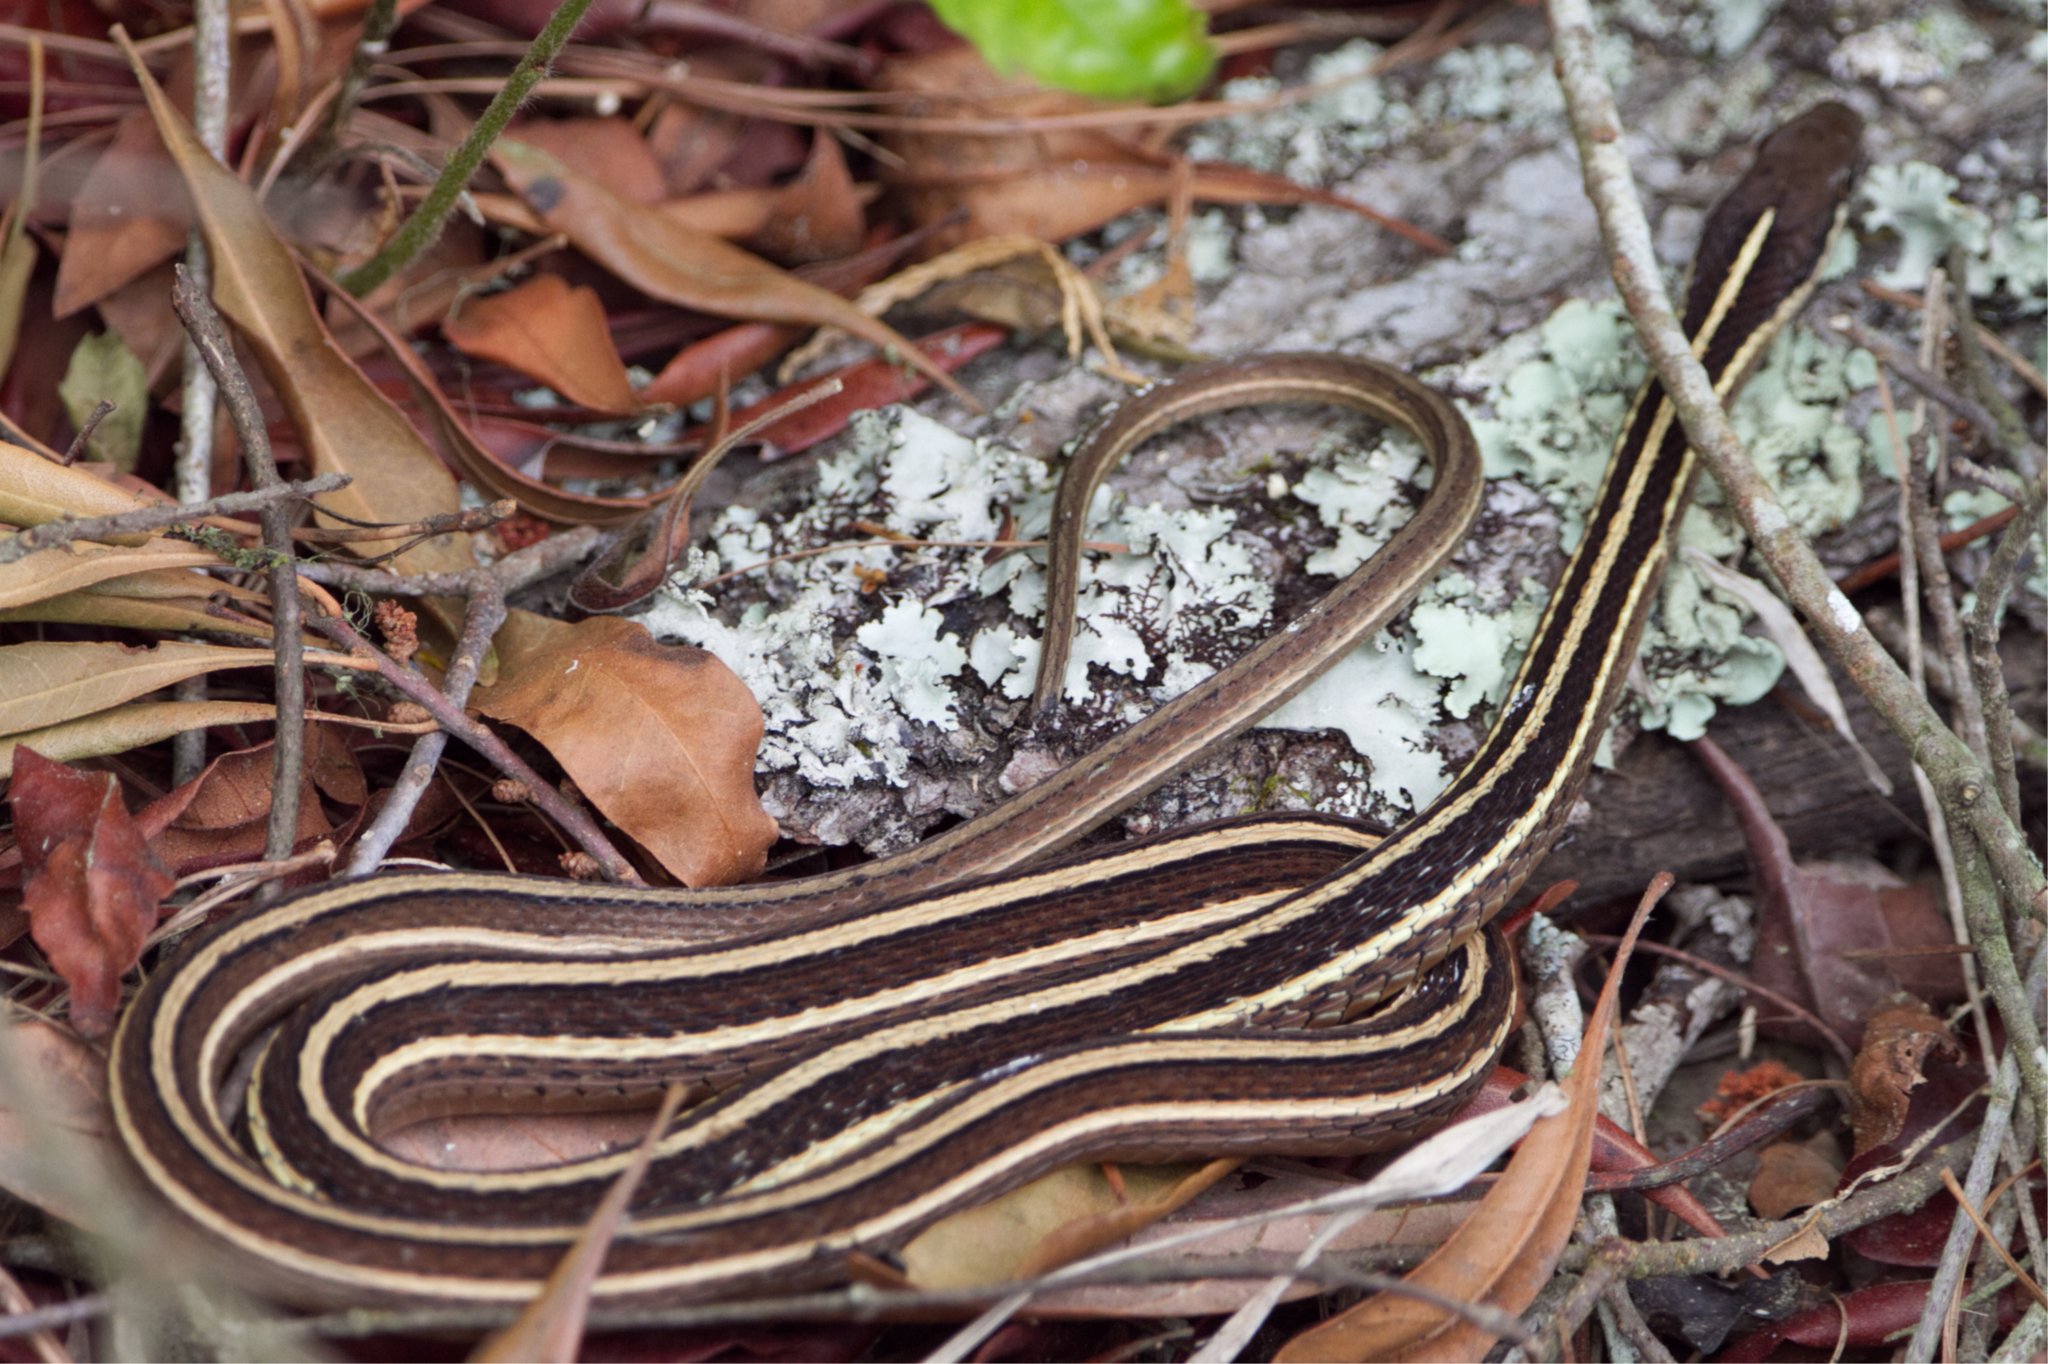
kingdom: Animalia
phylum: Chordata
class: Squamata
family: Colubridae
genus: Thamnophis
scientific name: Thamnophis saurita
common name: Eastern ribbonsnake
